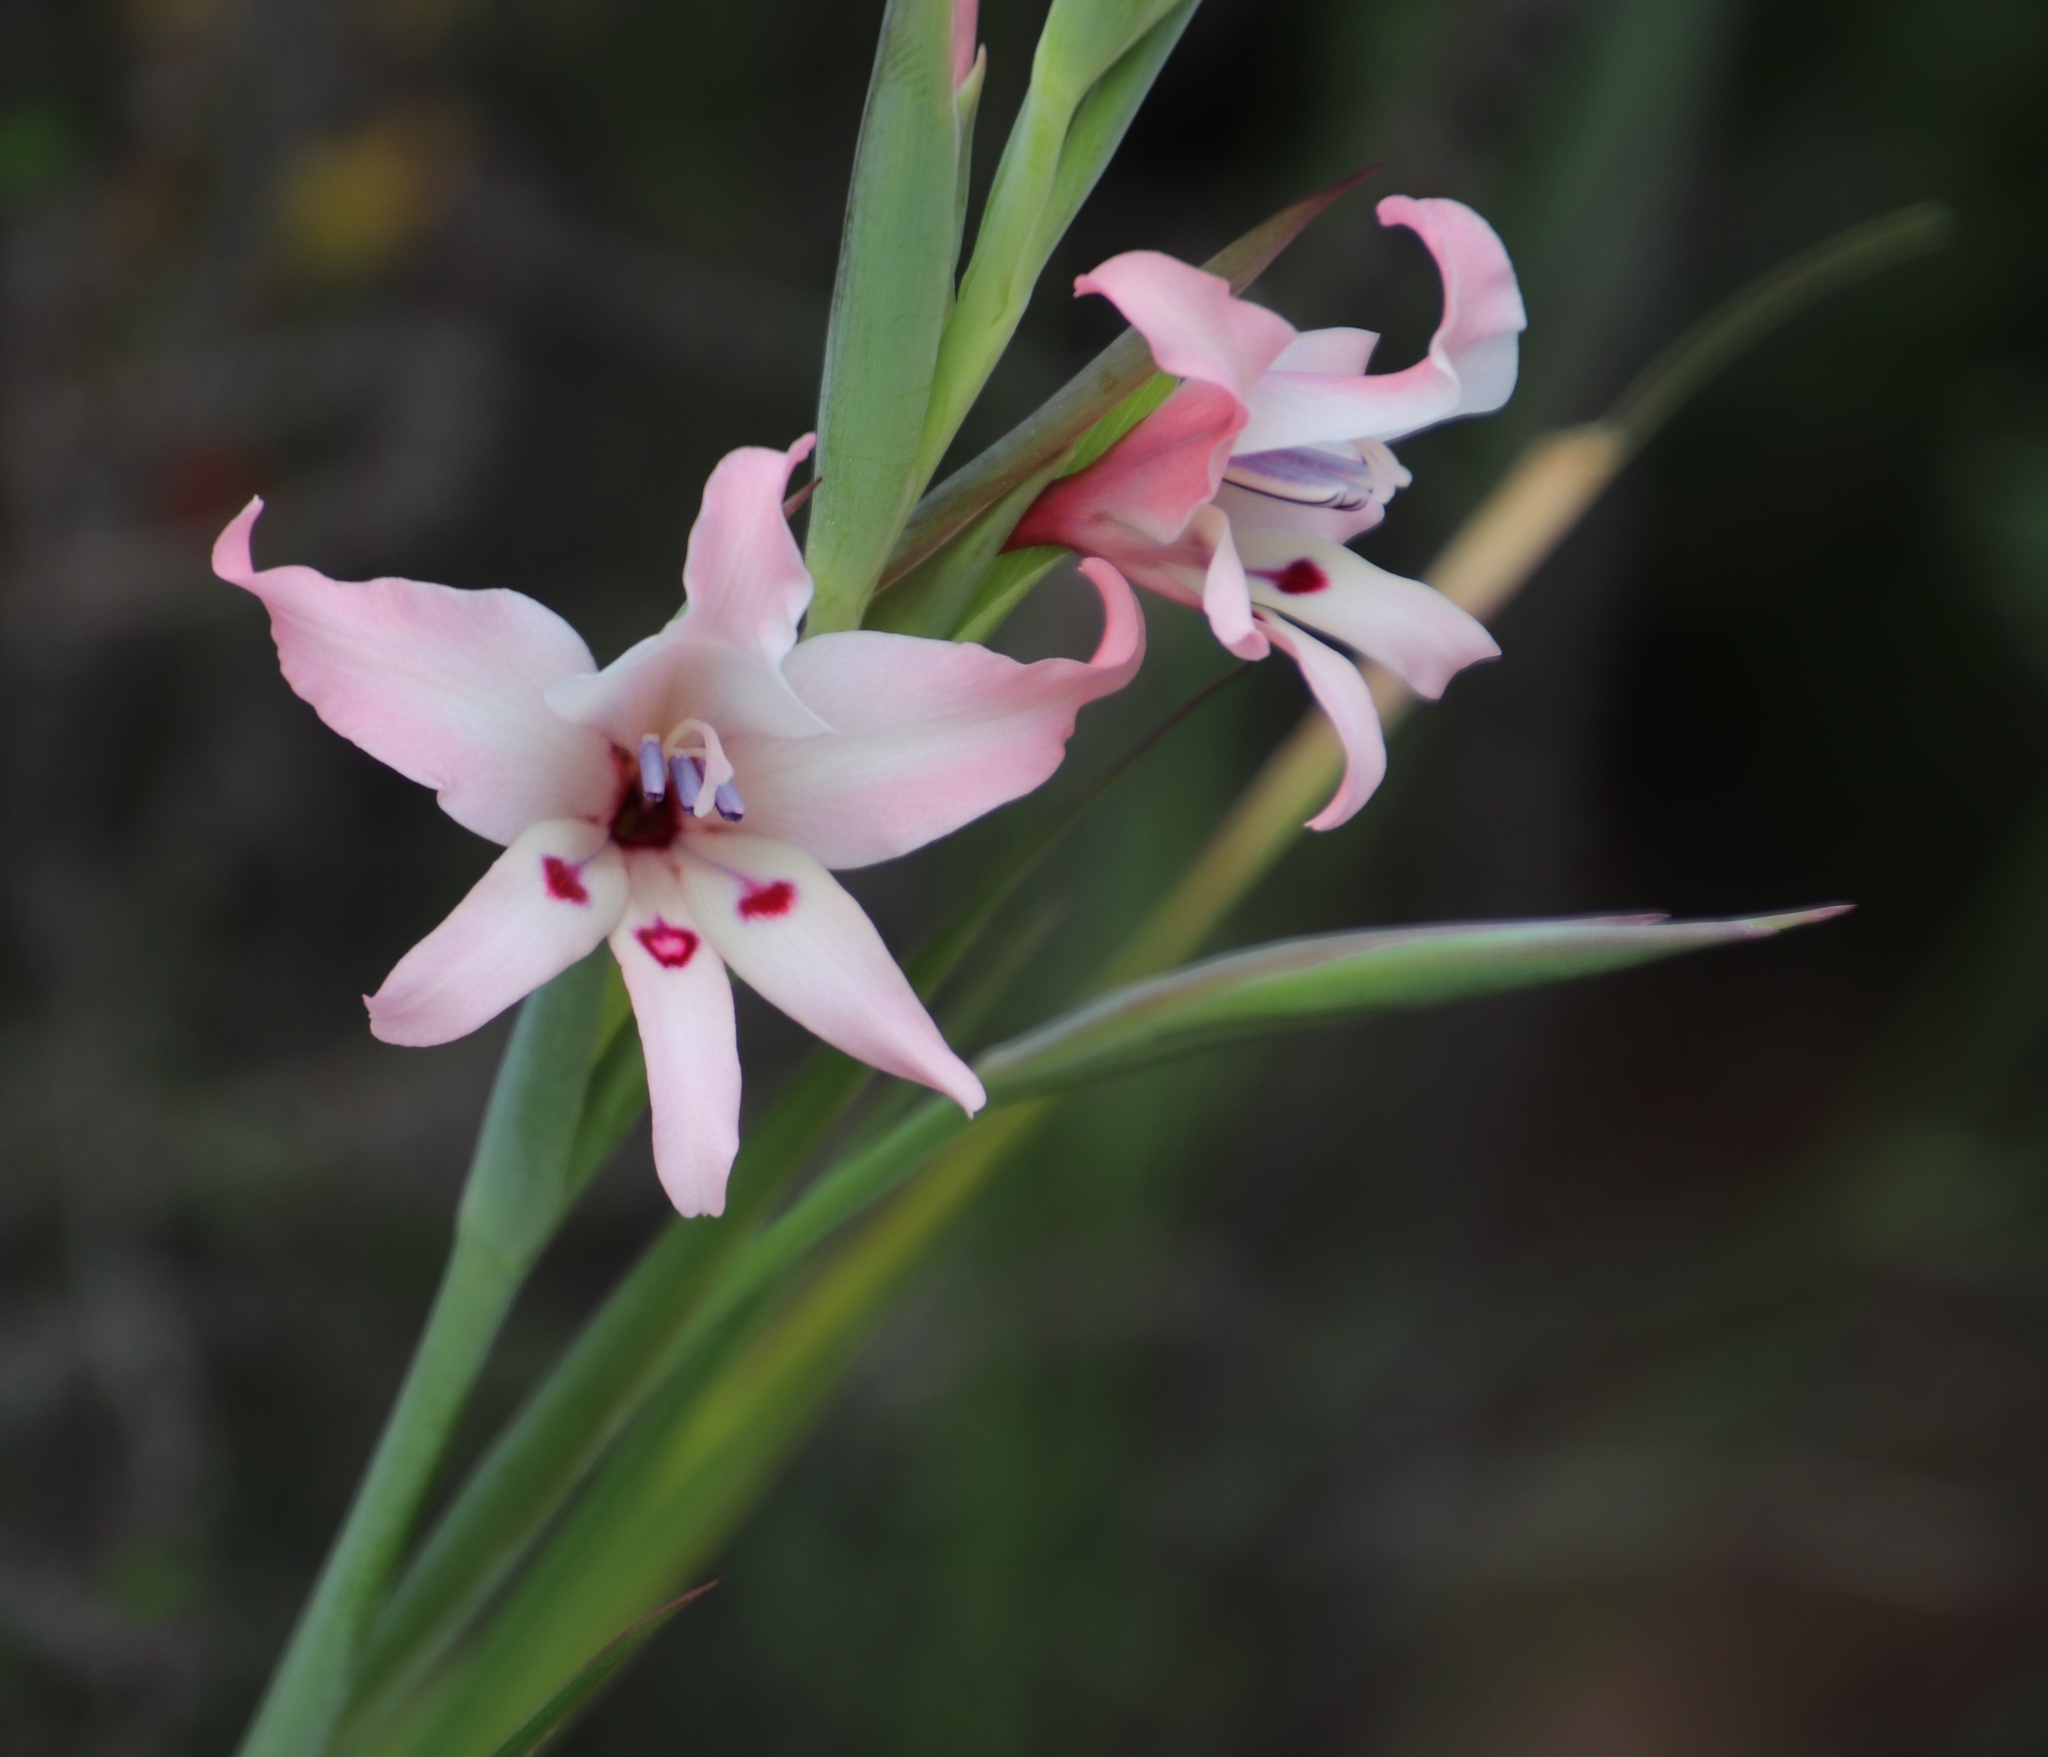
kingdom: Plantae
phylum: Tracheophyta
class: Liliopsida
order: Asparagales
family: Iridaceae
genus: Gladiolus
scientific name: Gladiolus carneus
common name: Painted-lady
